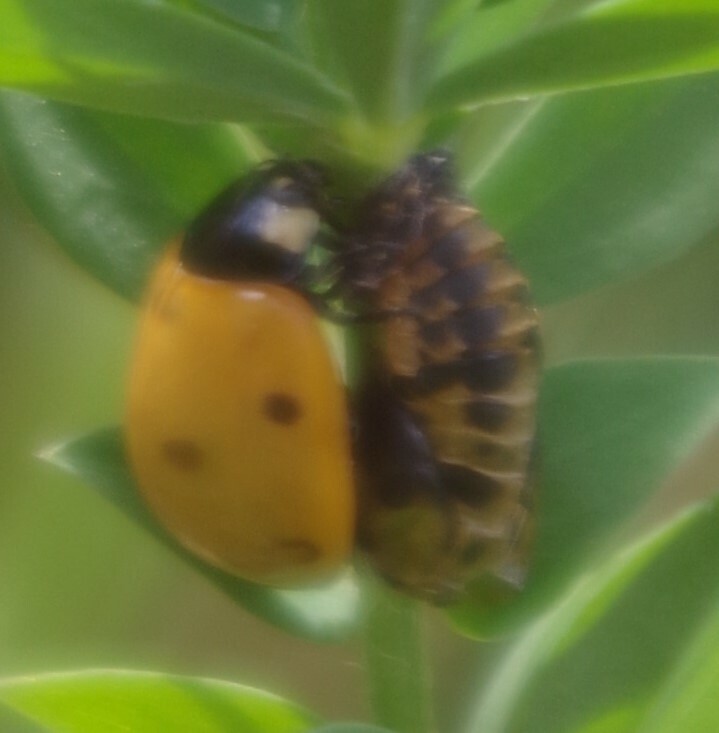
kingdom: Animalia
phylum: Arthropoda
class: Insecta
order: Coleoptera
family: Coccinellidae
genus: Coccinella
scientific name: Coccinella septempunctata
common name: Sevenspotted lady beetle
